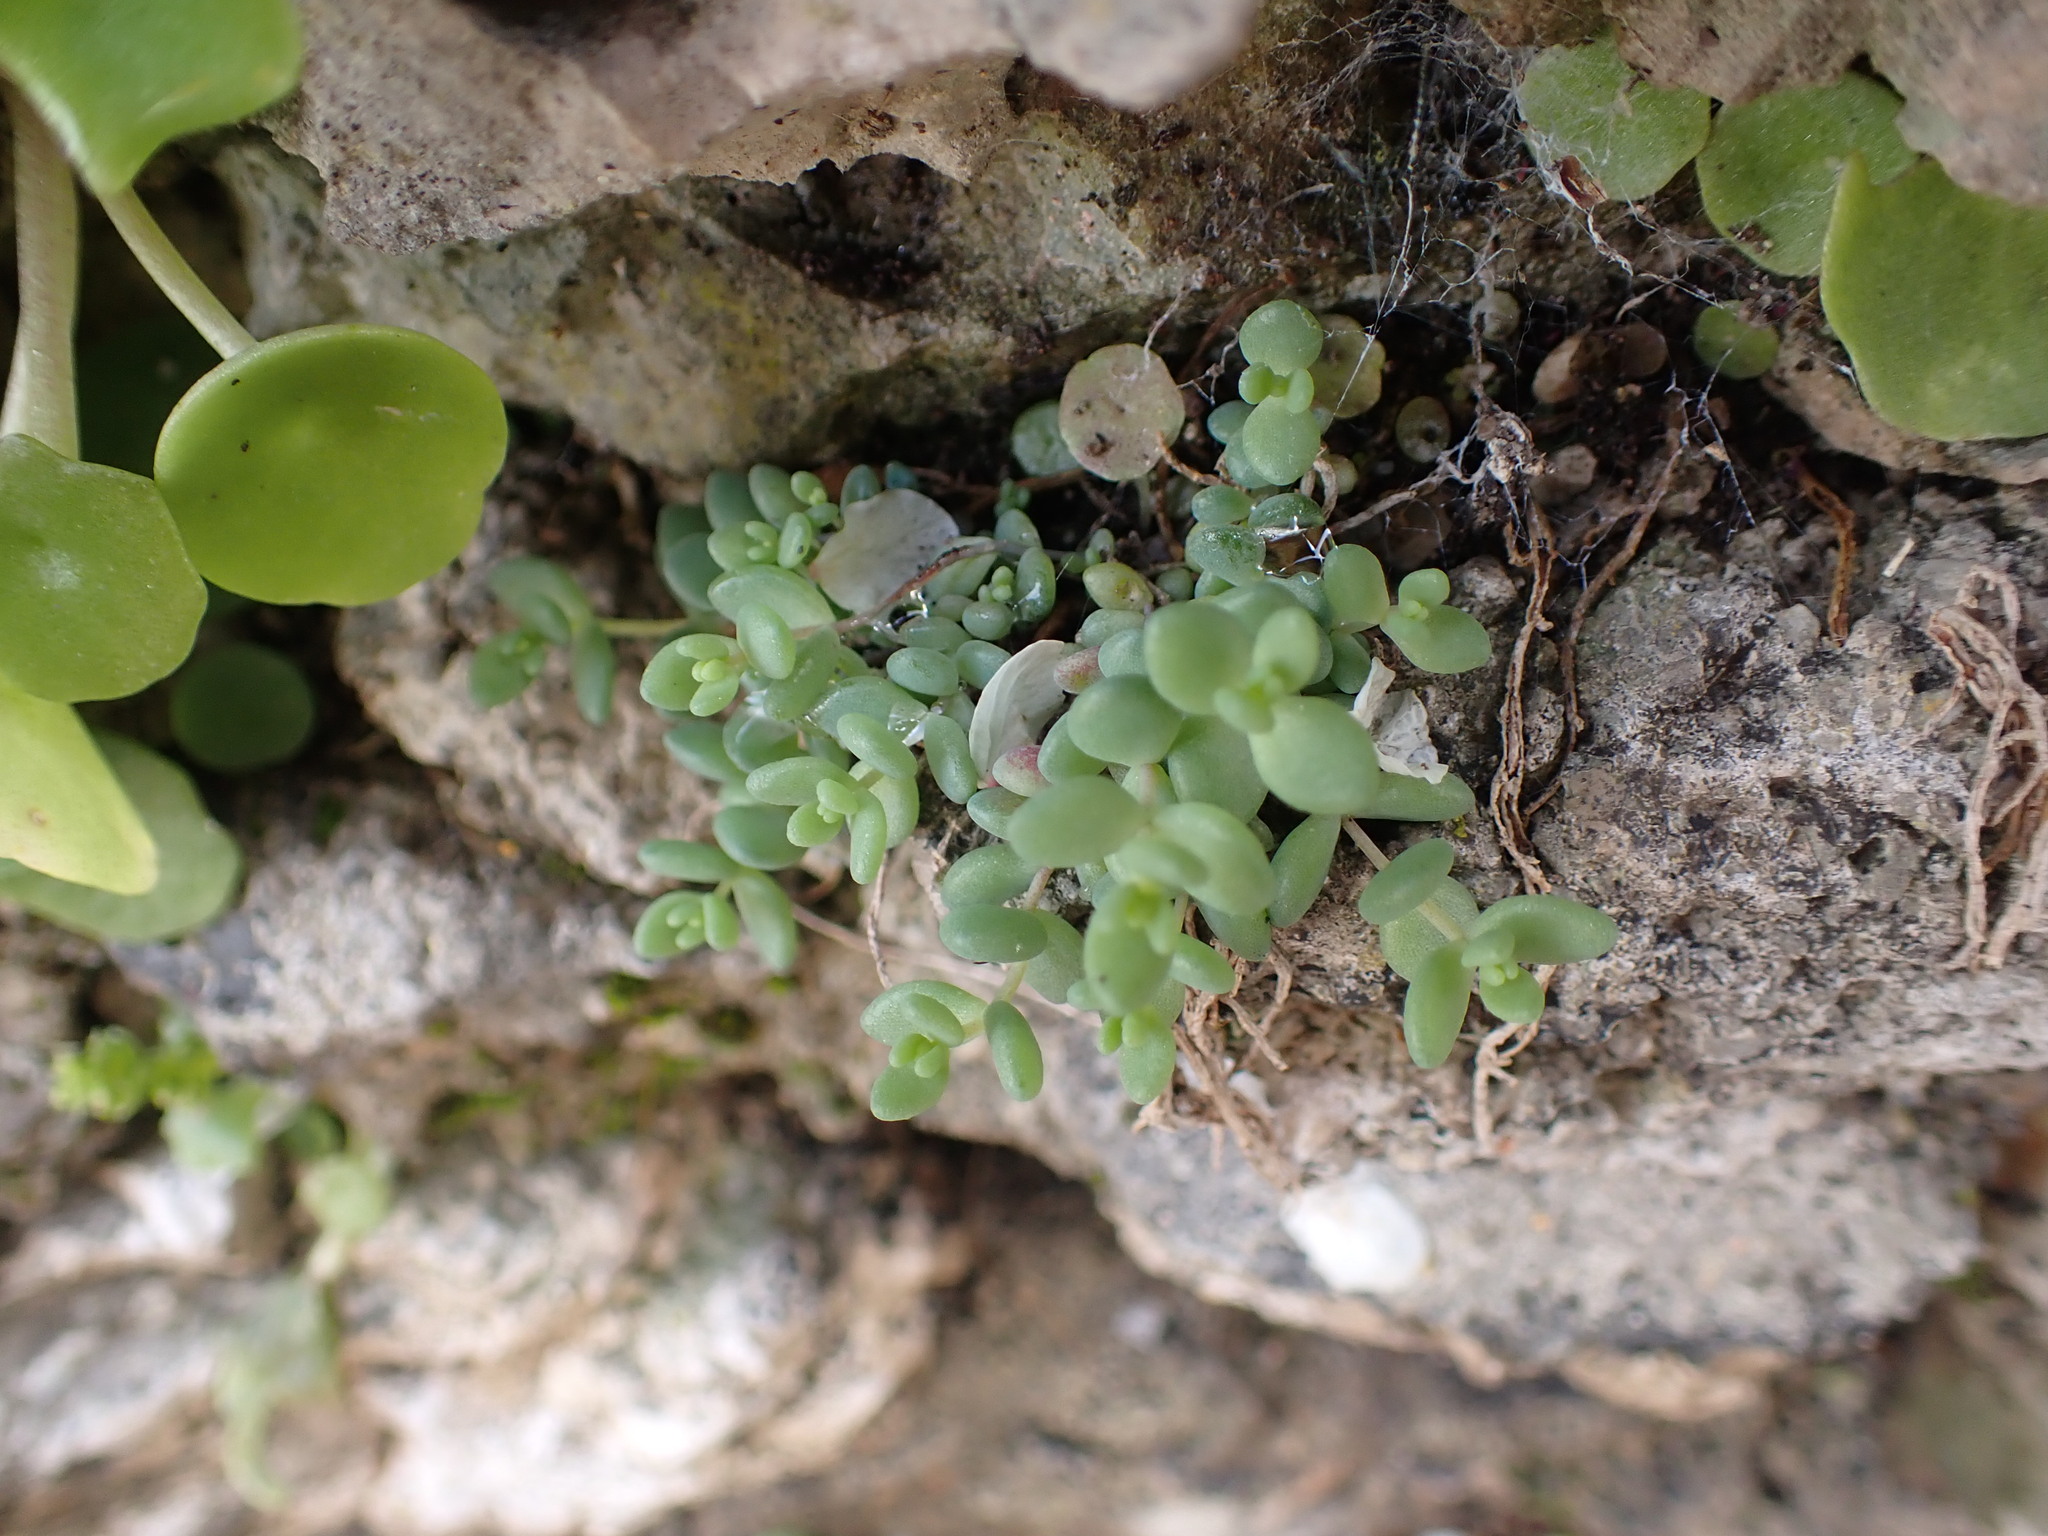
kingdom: Plantae
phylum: Tracheophyta
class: Magnoliopsida
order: Saxifragales
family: Crassulaceae
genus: Sedum
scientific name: Sedum dasyphyllum
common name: Thick-leaf stonecrop
